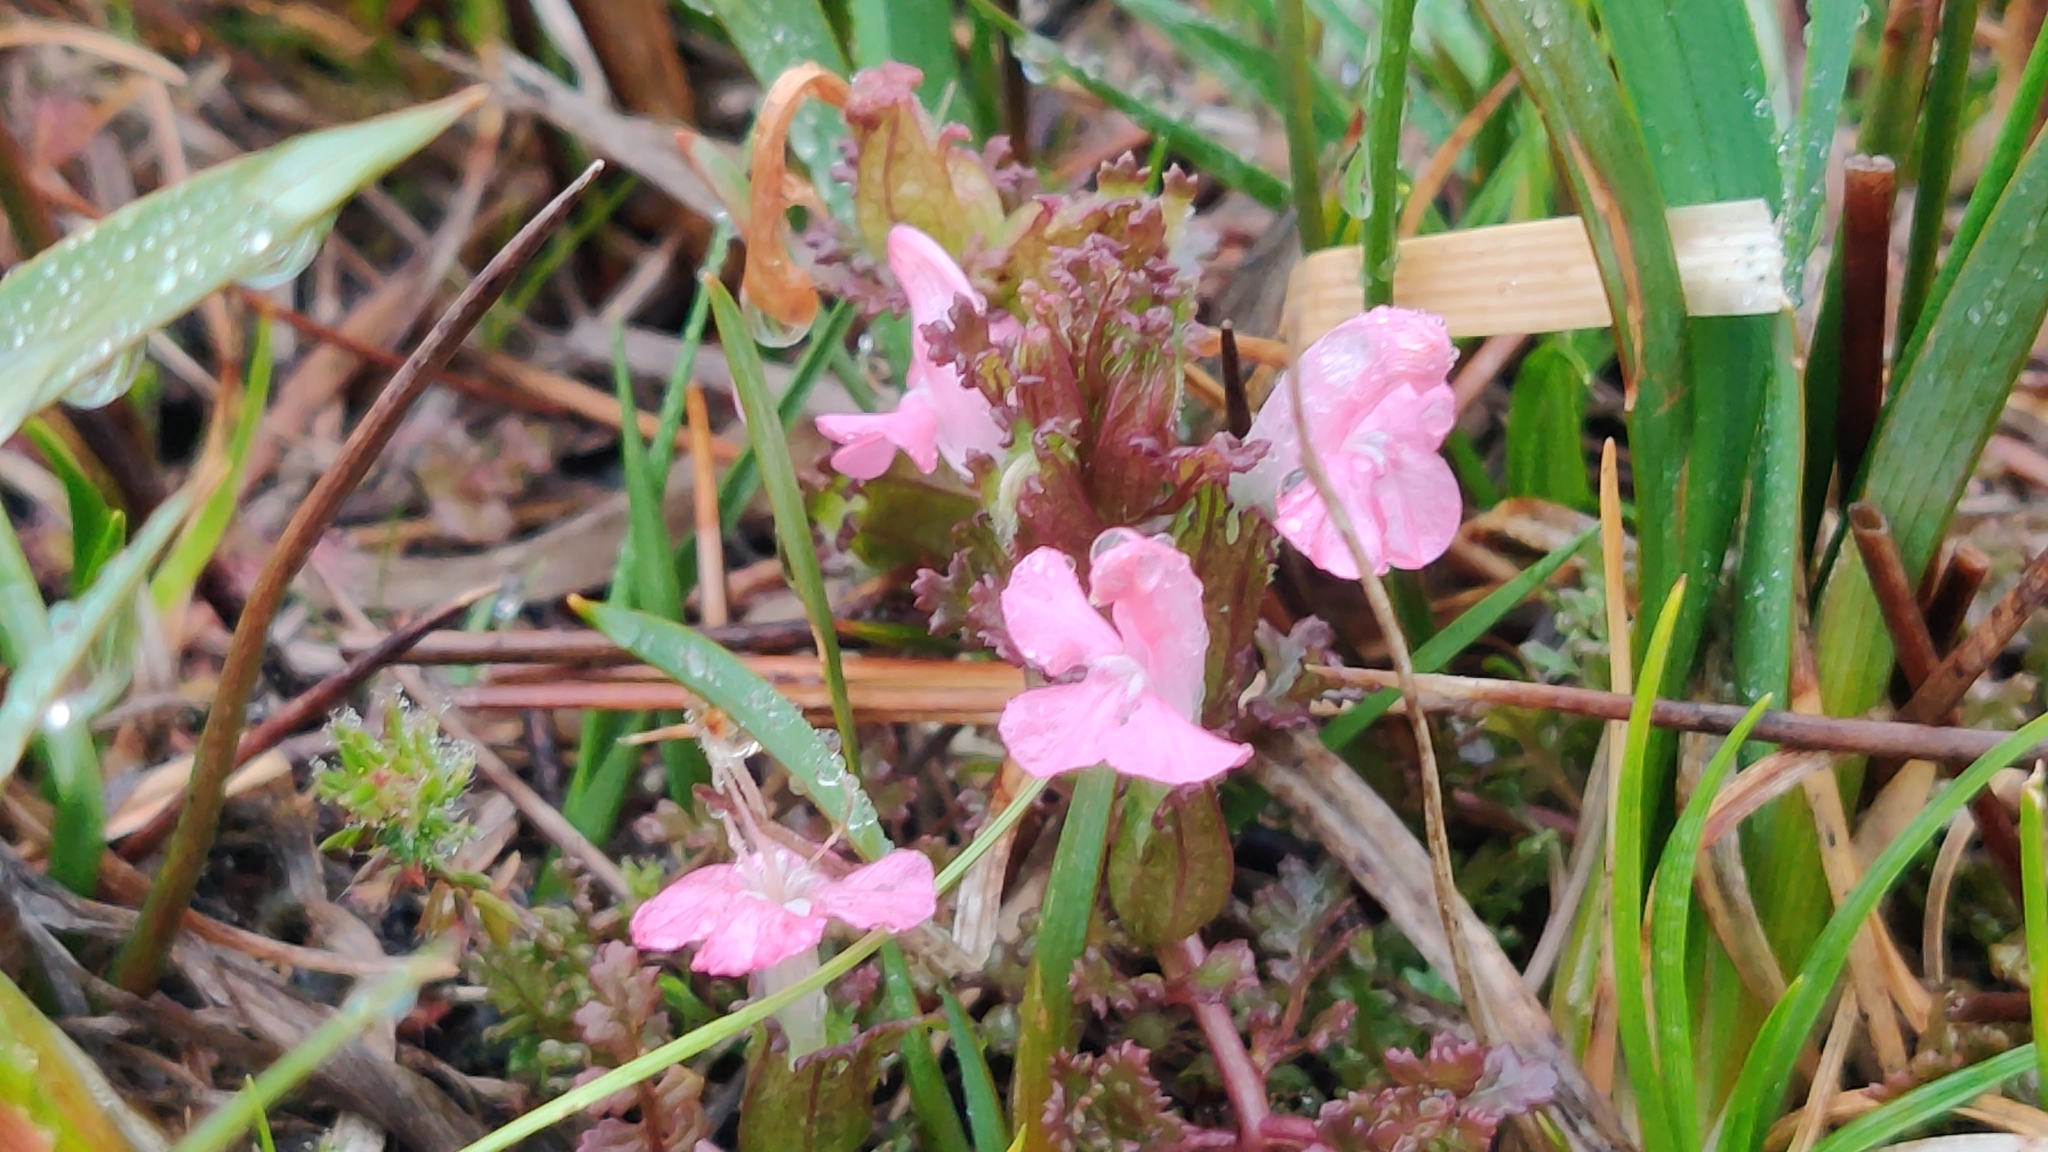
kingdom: Plantae
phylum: Tracheophyta
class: Magnoliopsida
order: Lamiales
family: Orobanchaceae
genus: Pedicularis
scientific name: Pedicularis sylvatica
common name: Lousewort
